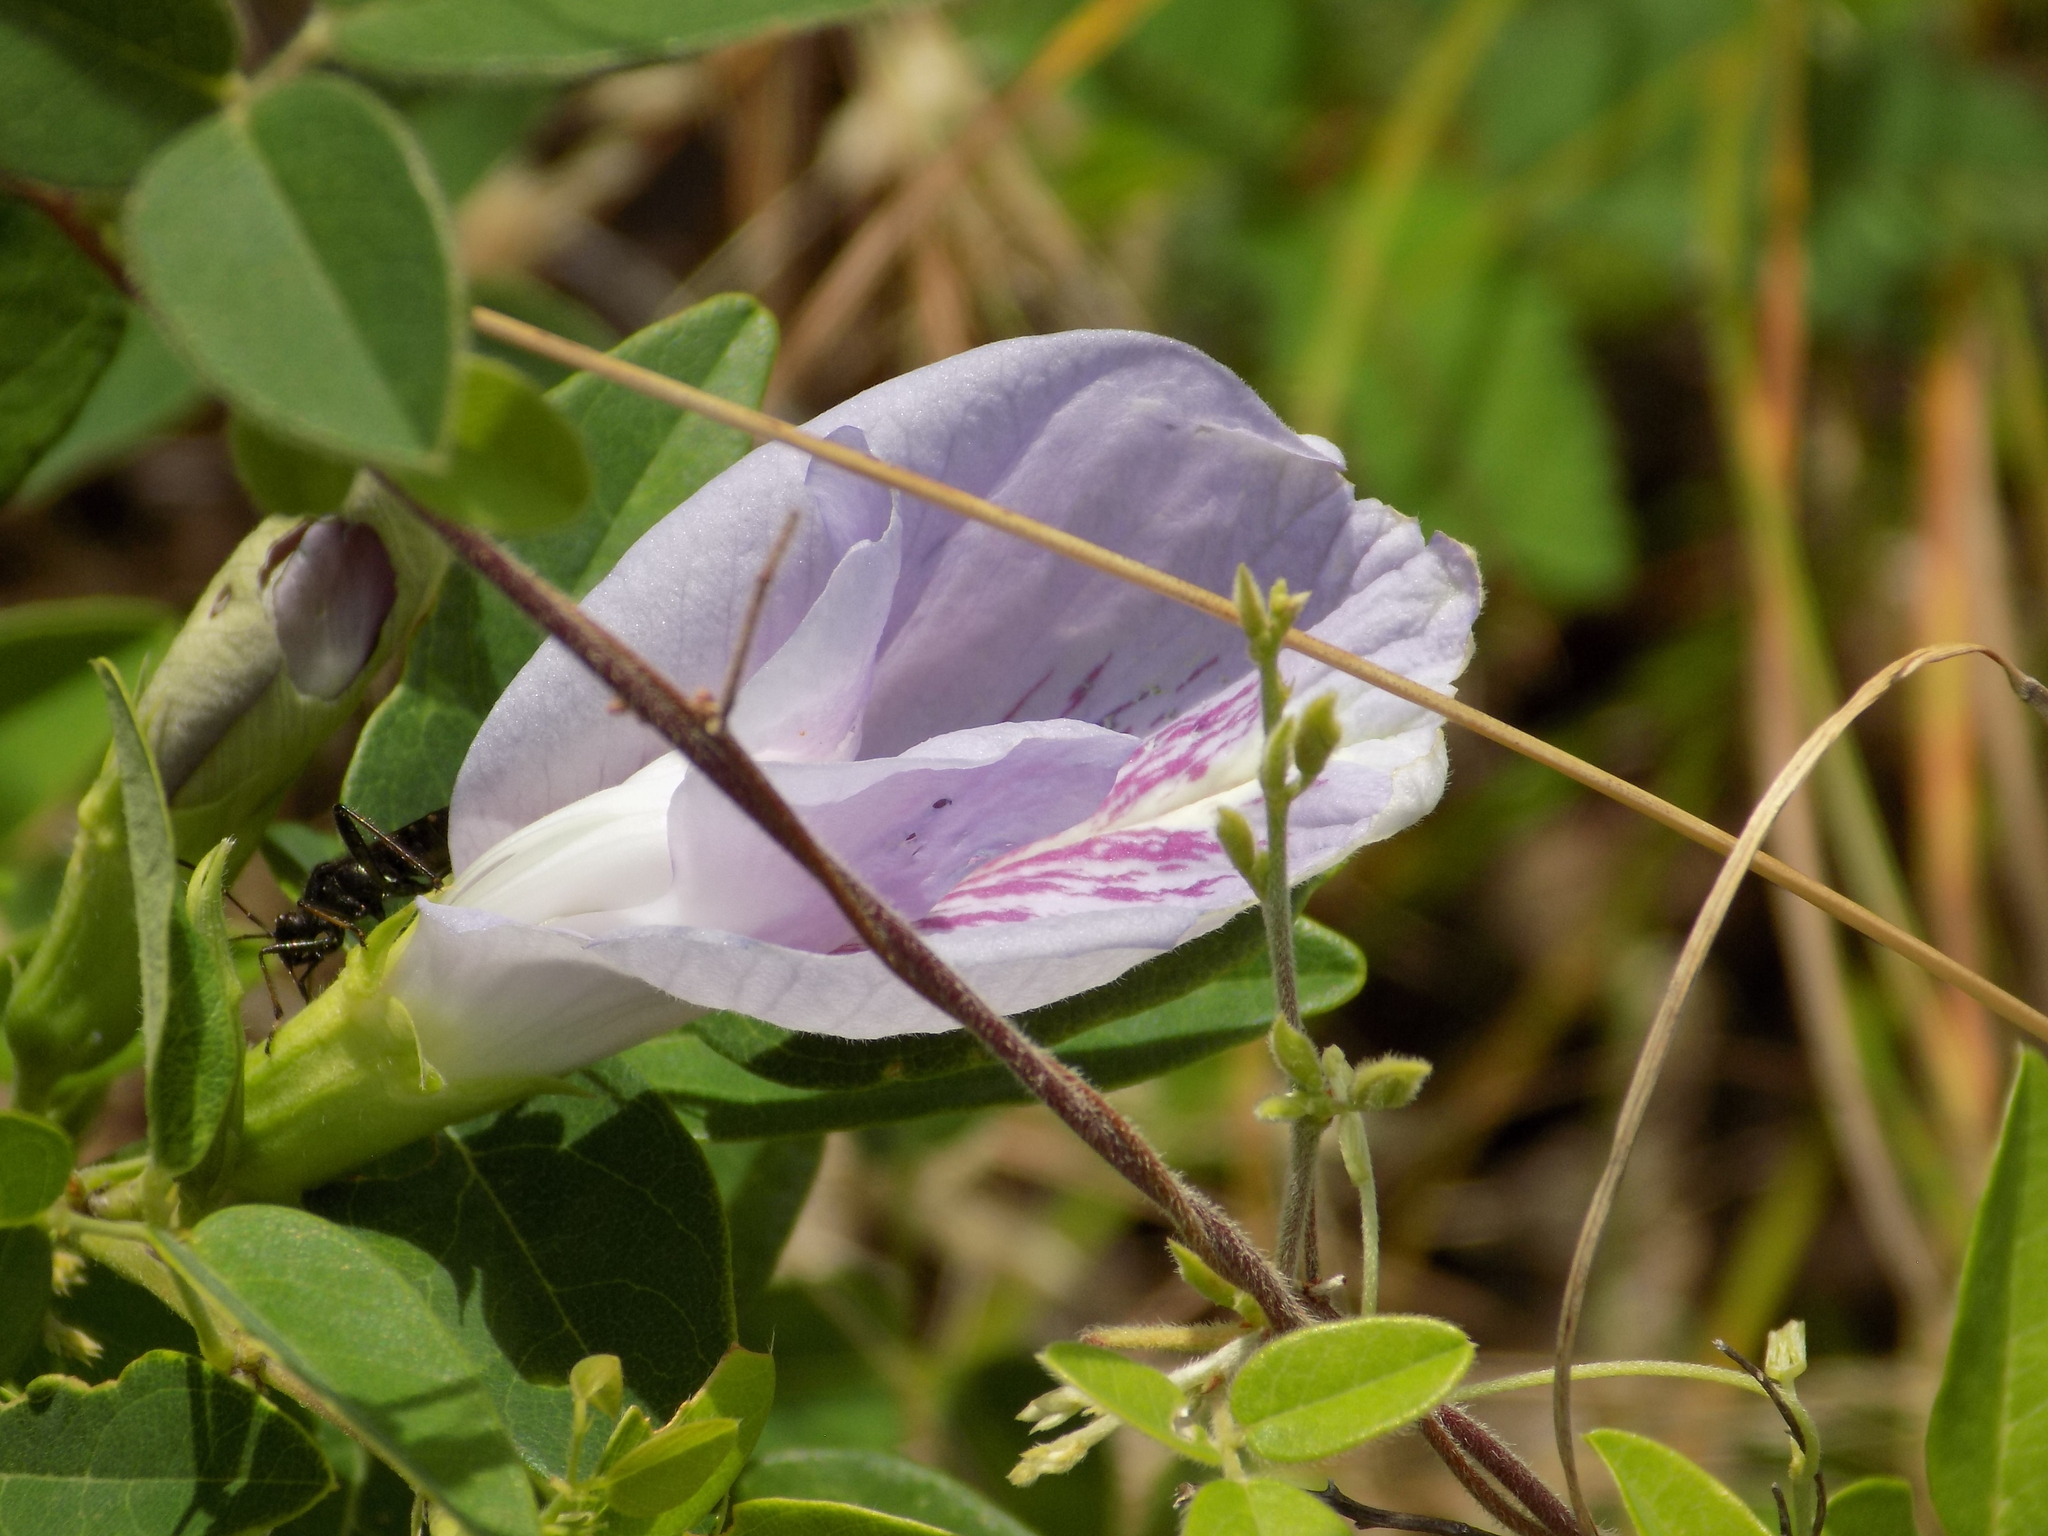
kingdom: Plantae
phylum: Tracheophyta
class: Magnoliopsida
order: Fabales
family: Fabaceae
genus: Clitoria
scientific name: Clitoria mariana
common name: Butterfly-pea
